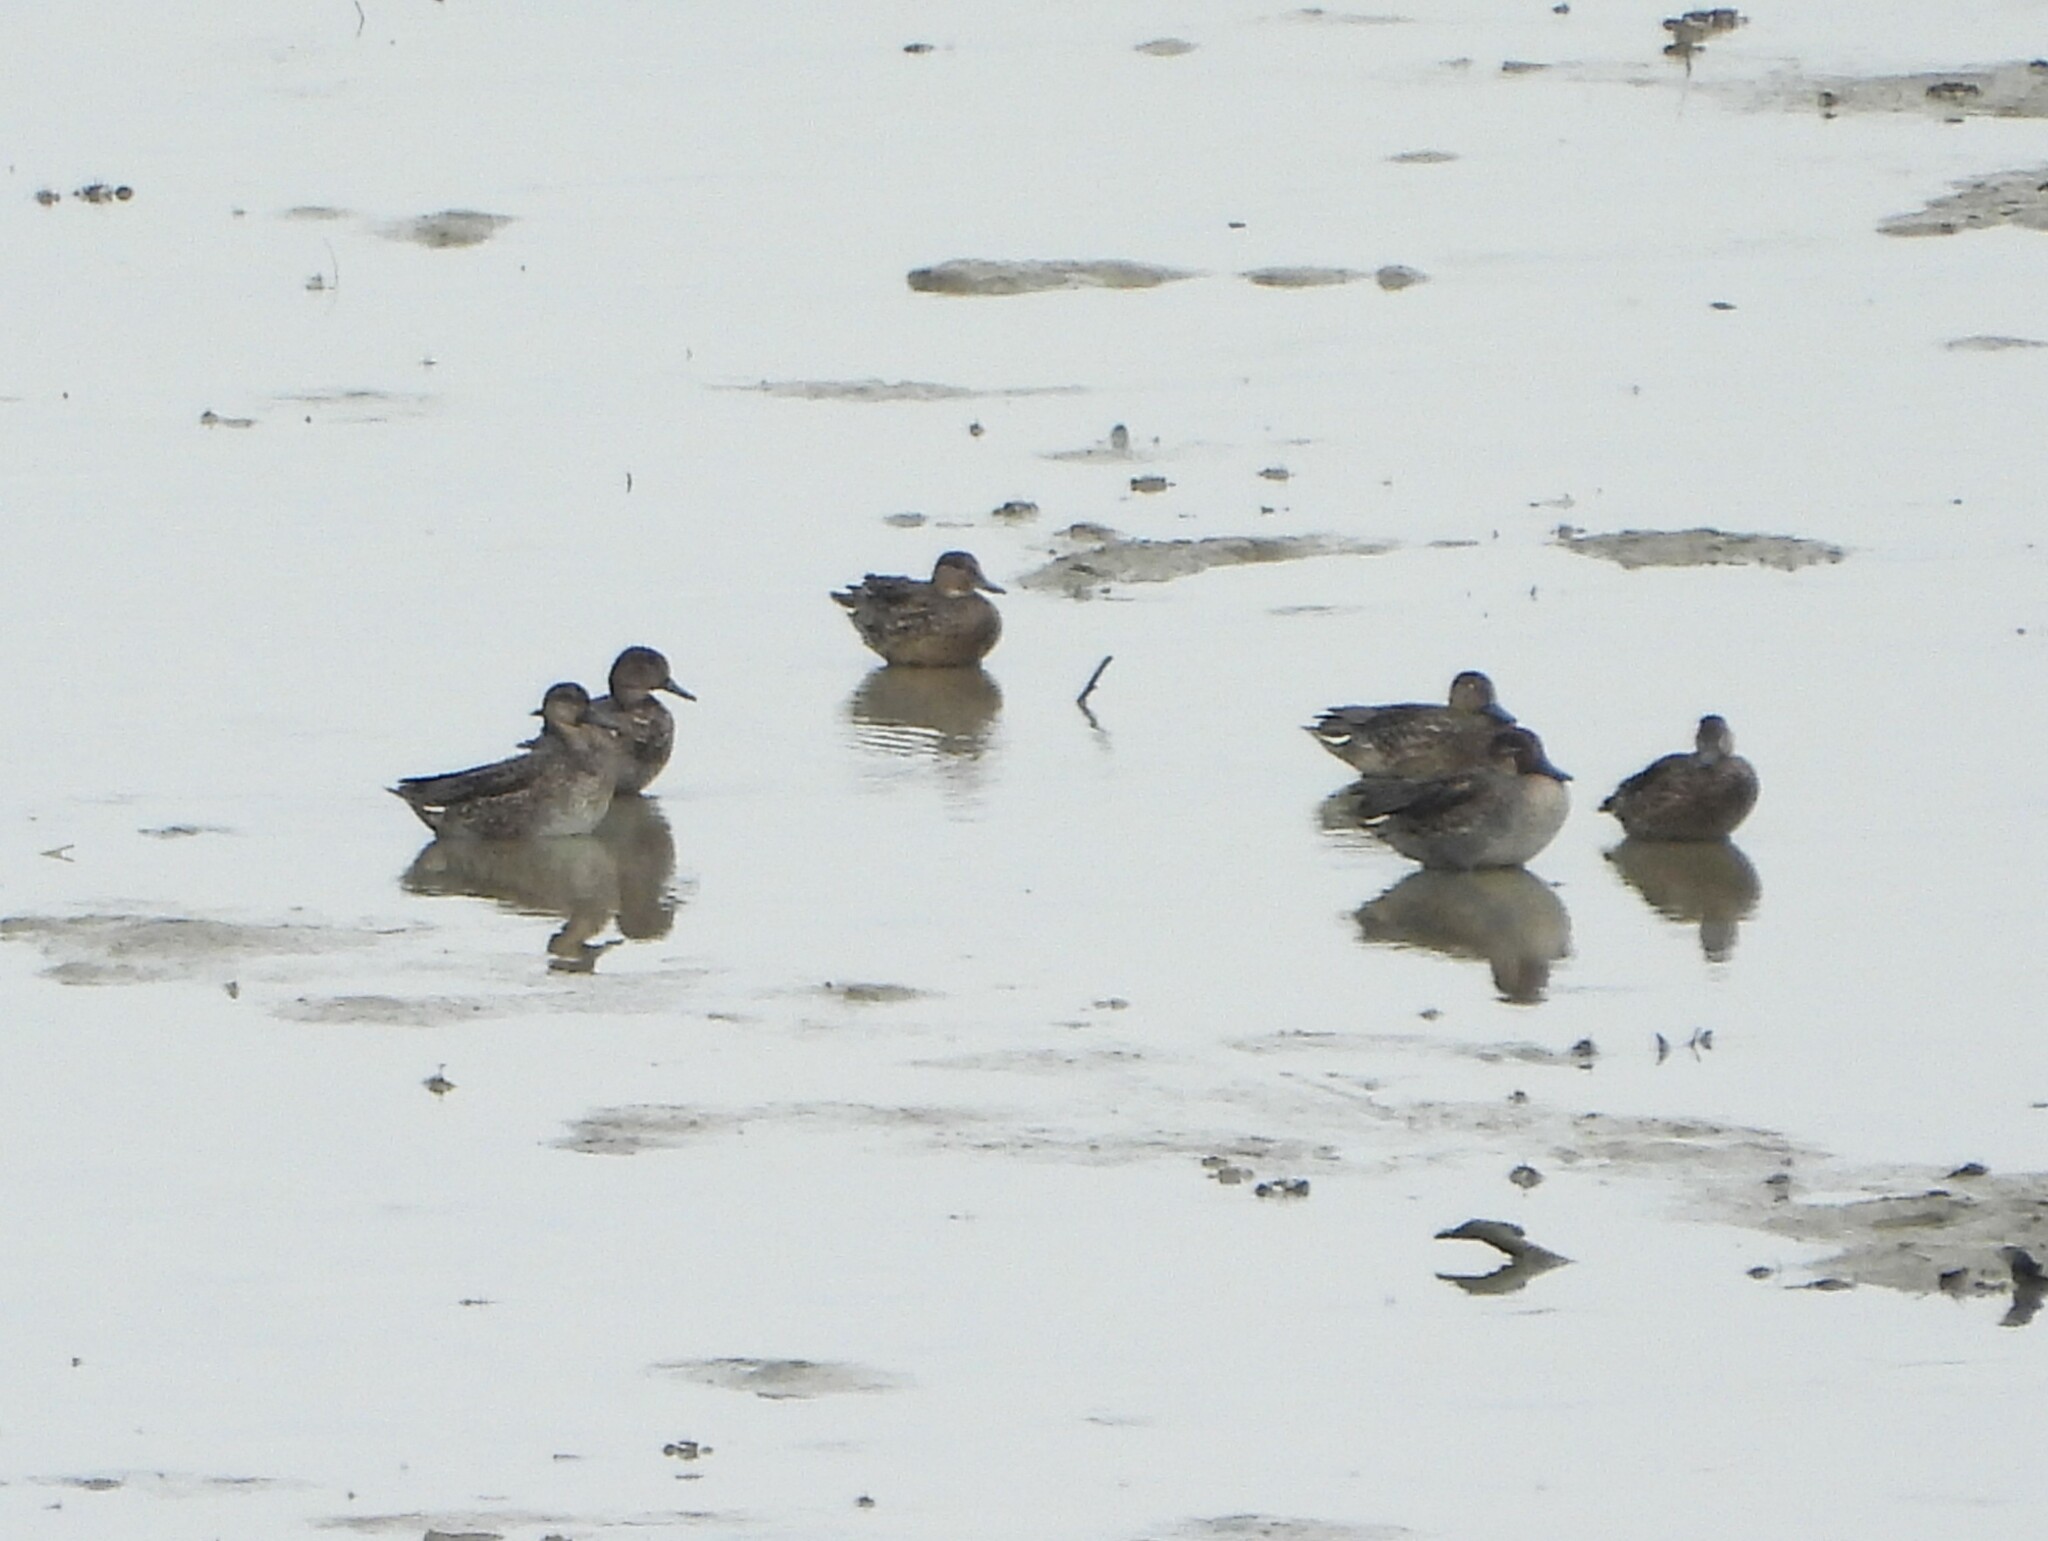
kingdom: Animalia
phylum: Chordata
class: Aves
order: Anseriformes
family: Anatidae
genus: Anas
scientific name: Anas crecca
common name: Eurasian teal
